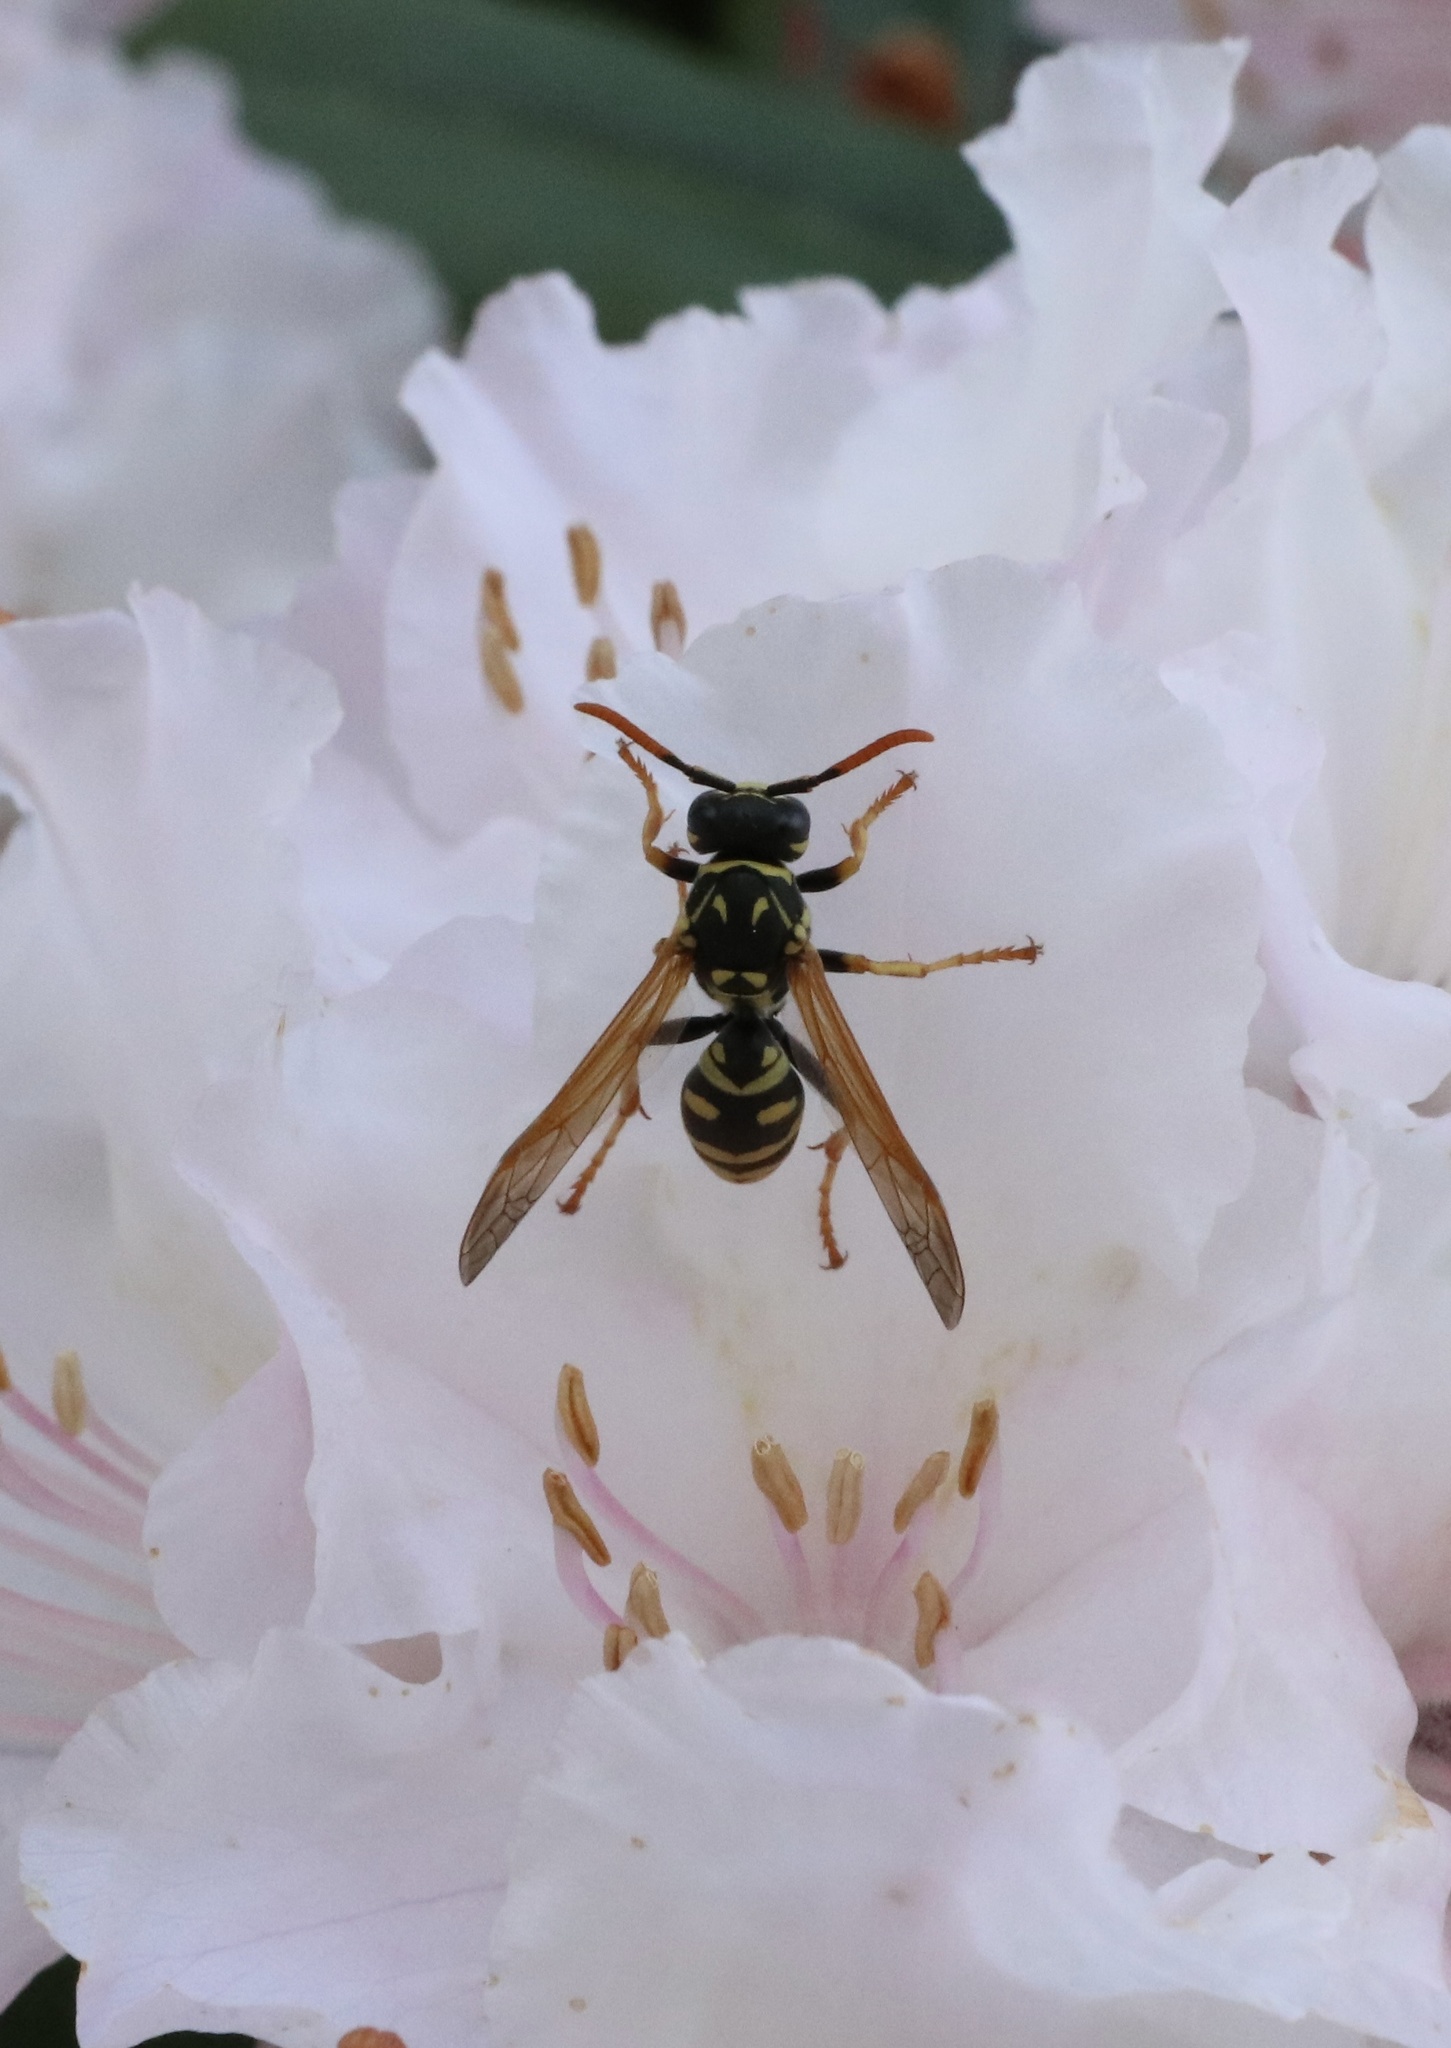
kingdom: Animalia
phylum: Arthropoda
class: Insecta
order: Hymenoptera
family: Eumenidae
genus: Polistes
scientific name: Polistes dominula
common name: Paper wasp
